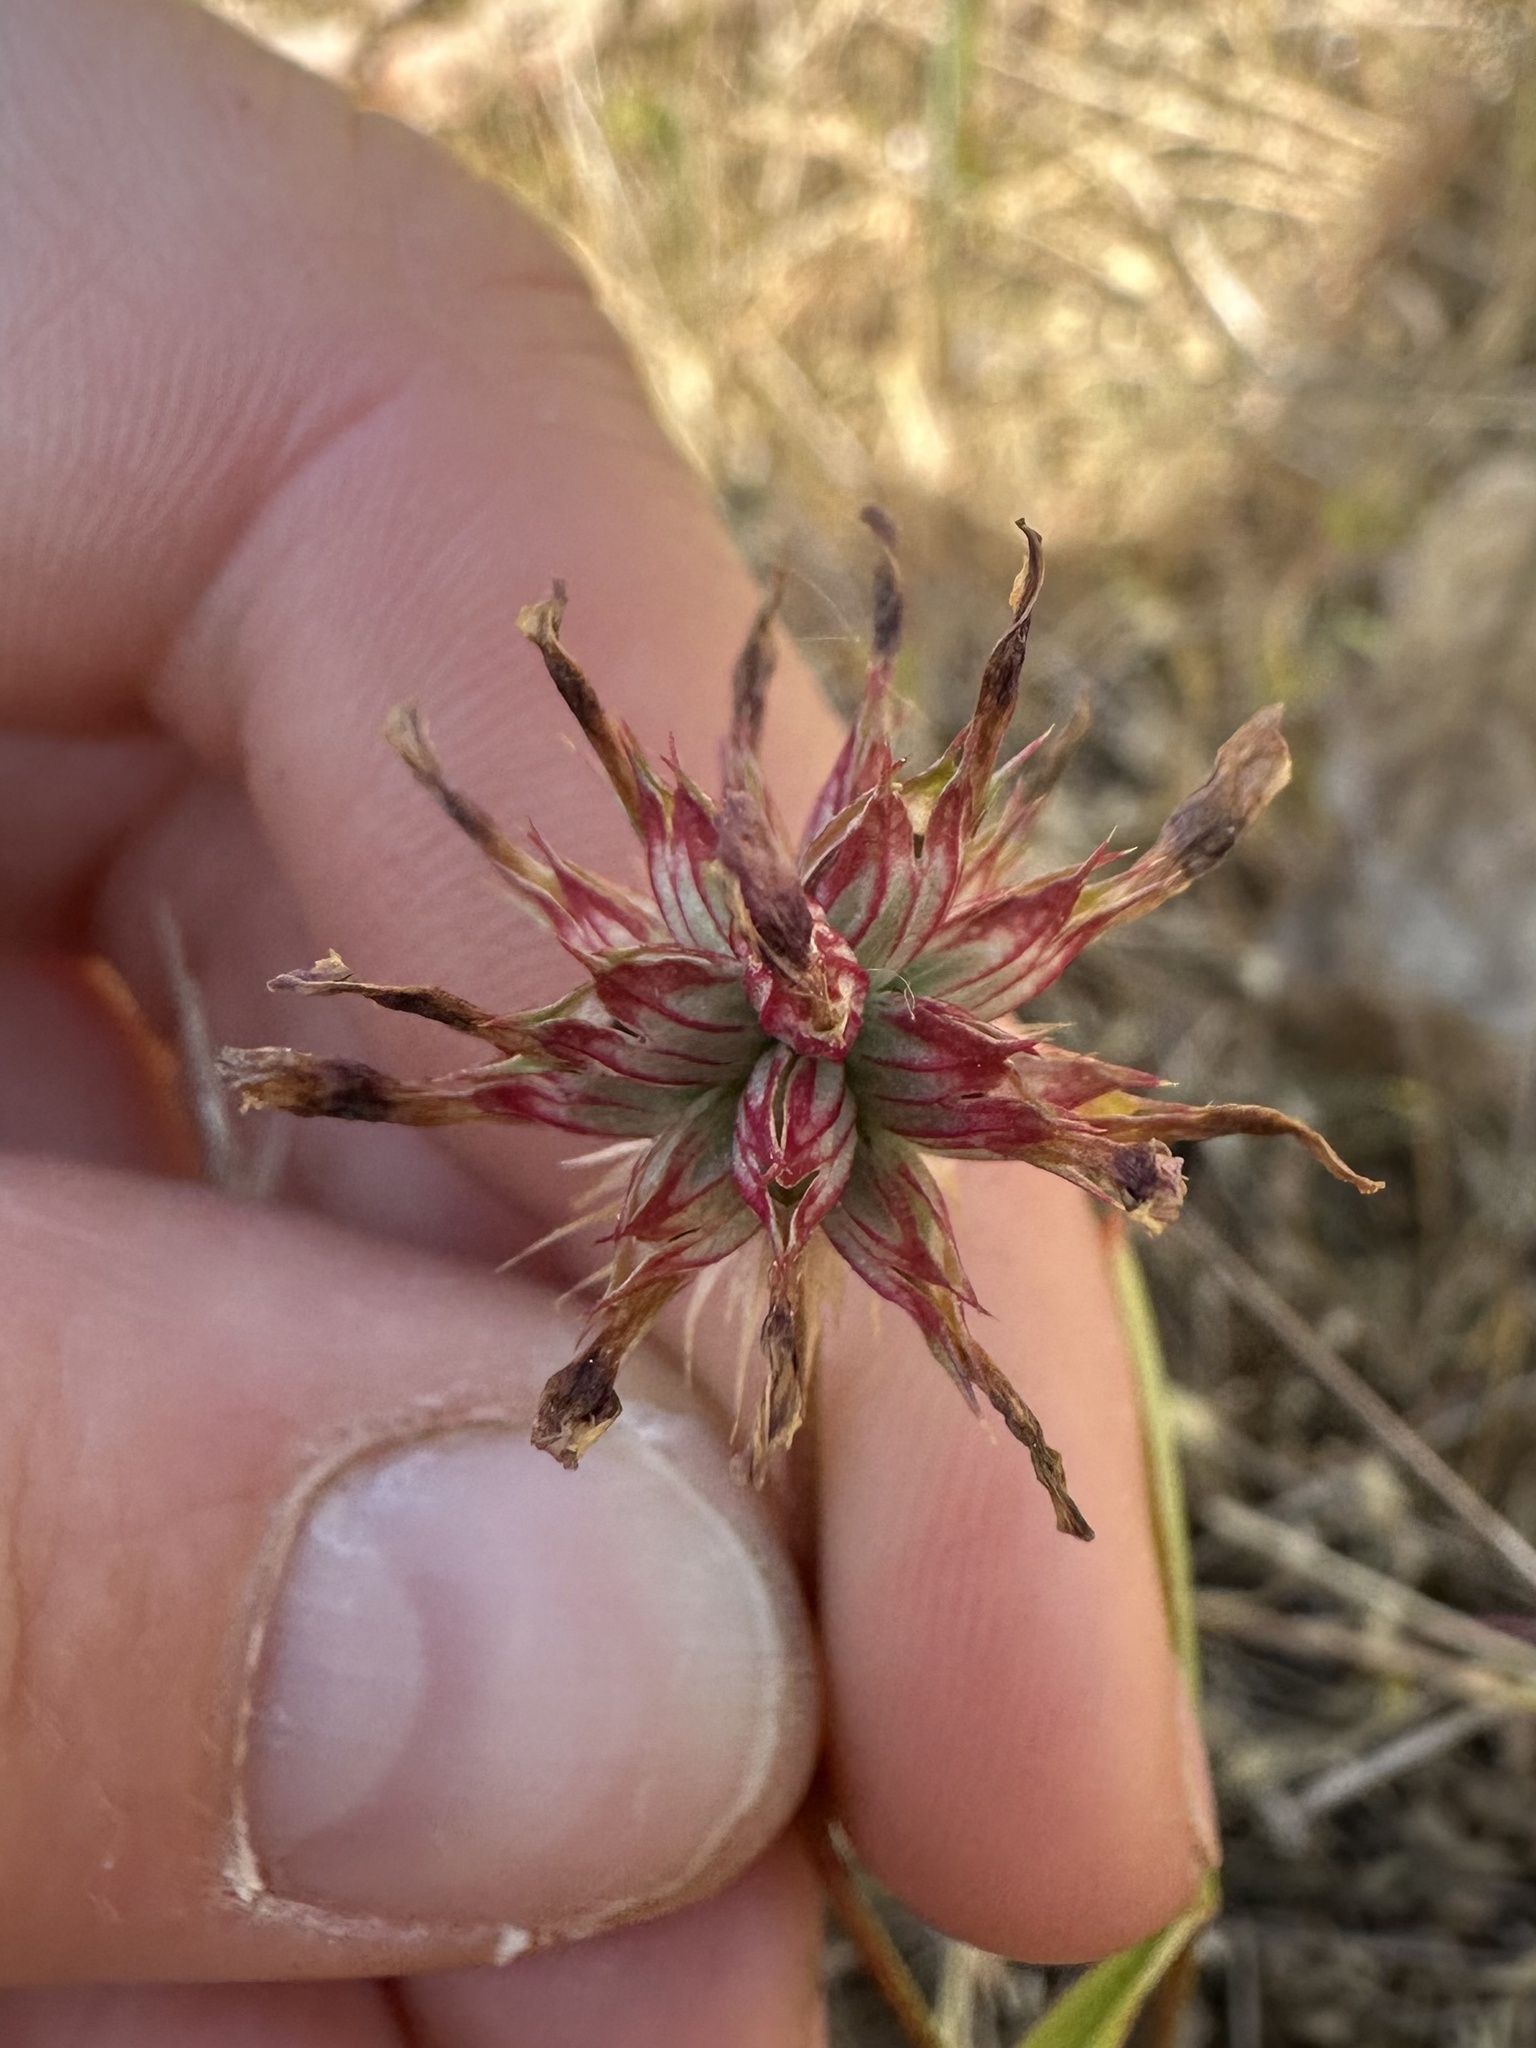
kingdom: Plantae
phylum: Tracheophyta
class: Magnoliopsida
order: Fabales
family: Fabaceae
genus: Trifolium
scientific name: Trifolium willdenovii
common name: Tomcat clover
